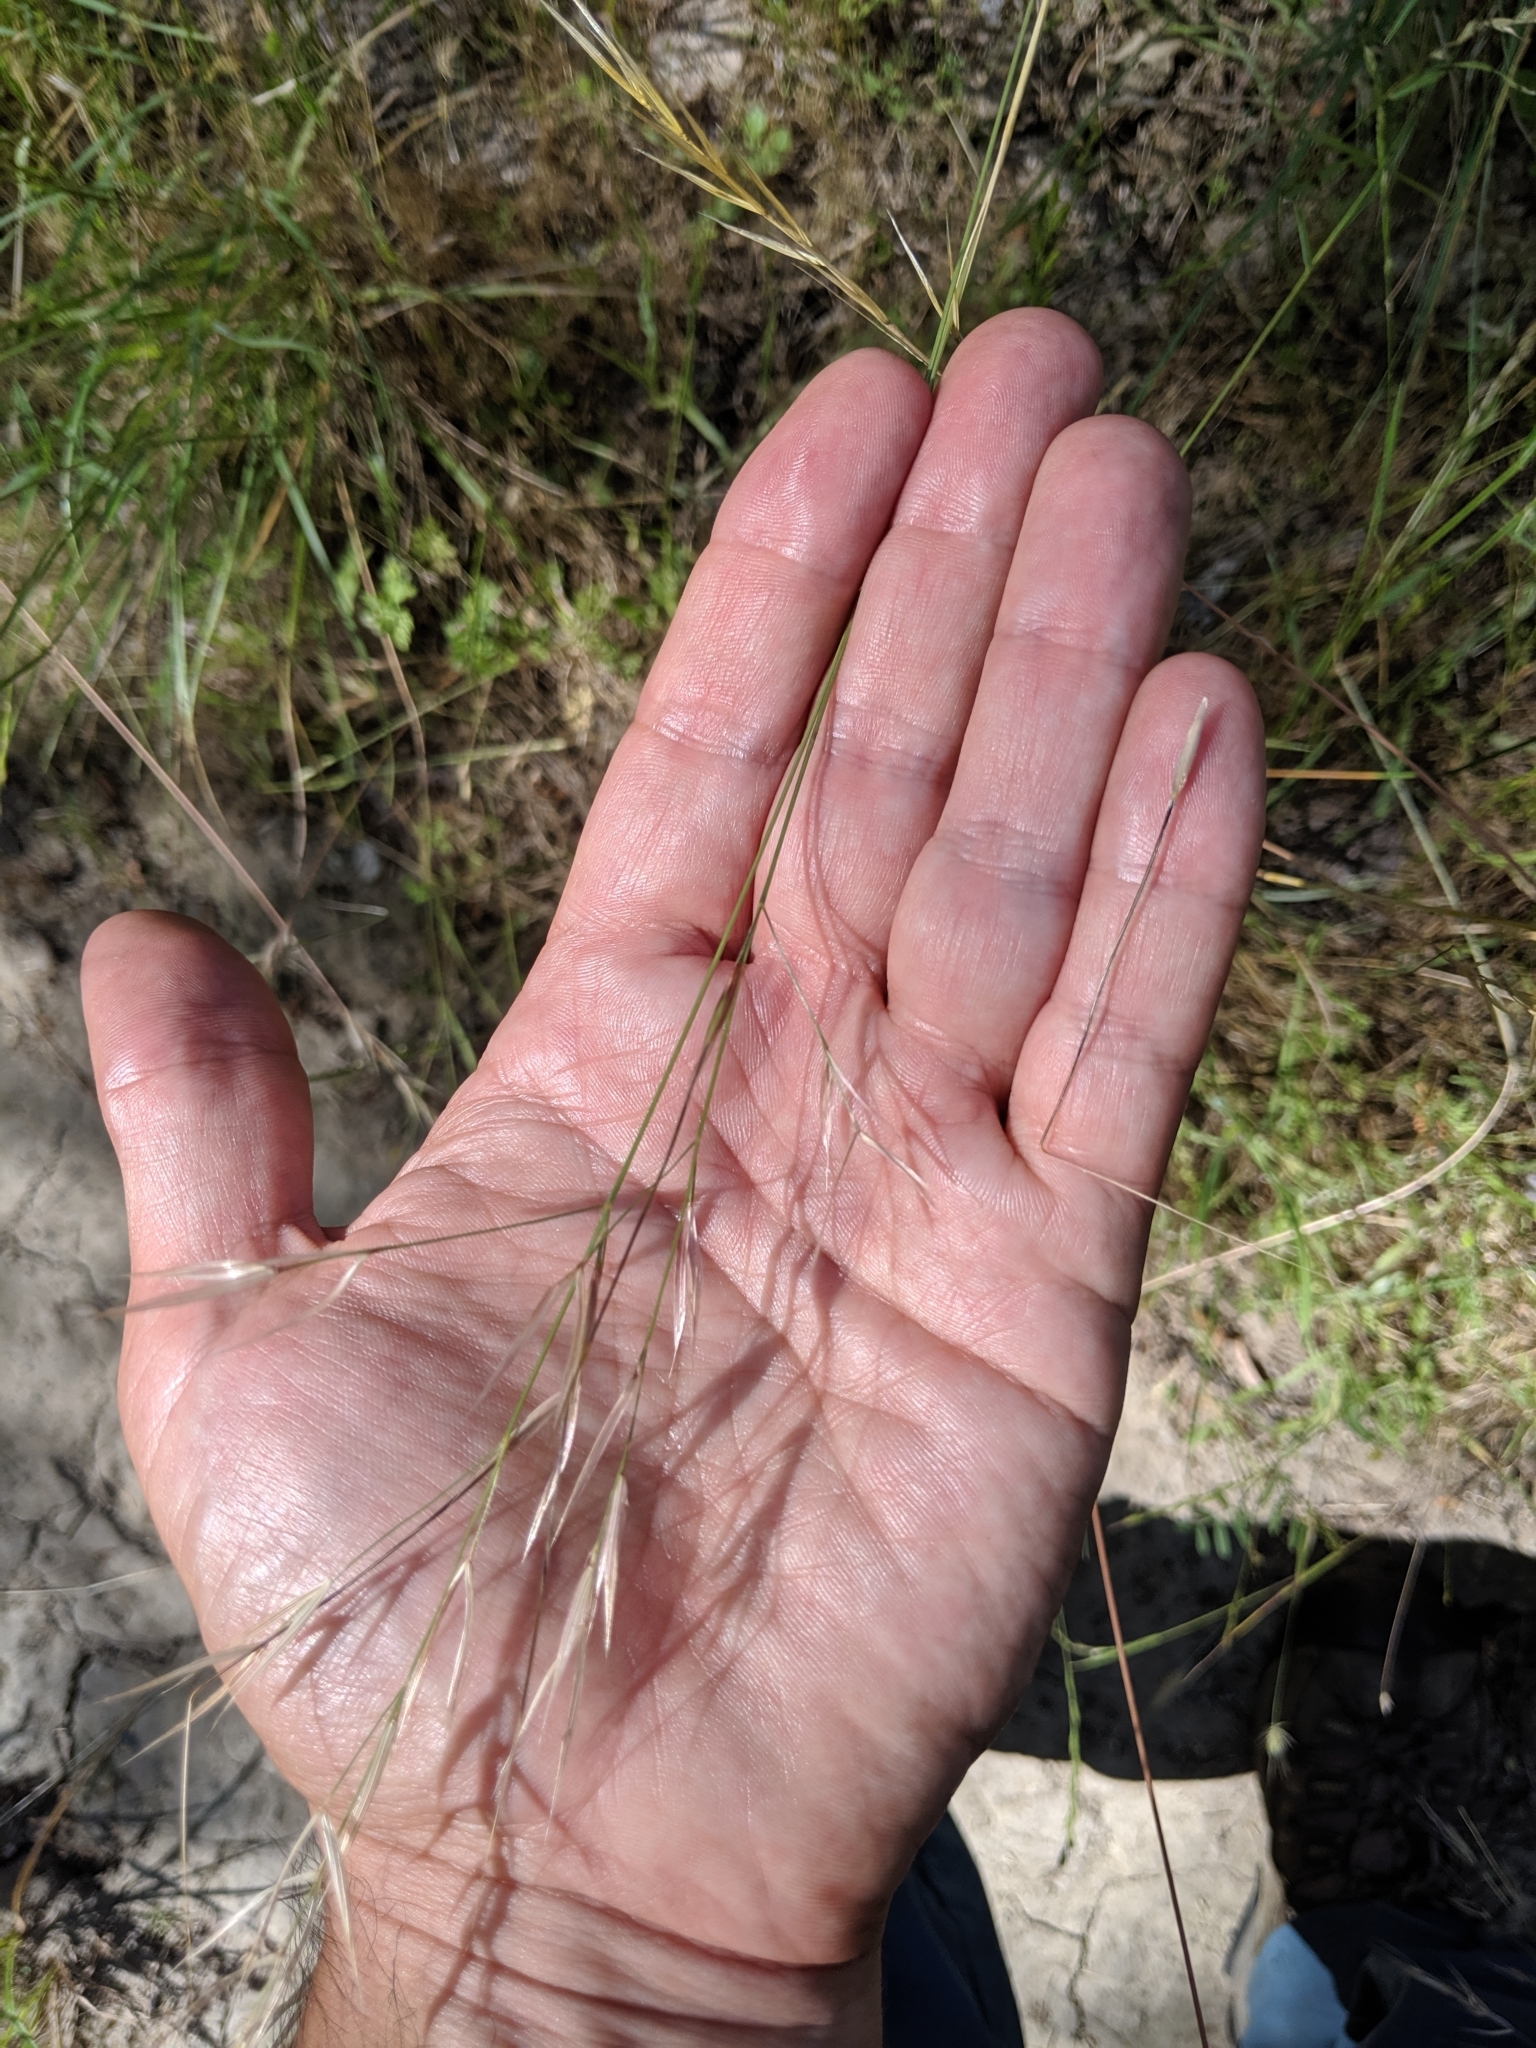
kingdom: Plantae
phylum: Tracheophyta
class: Liliopsida
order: Poales
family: Poaceae
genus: Nassella
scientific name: Nassella pulchra
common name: Purple needlegrass
